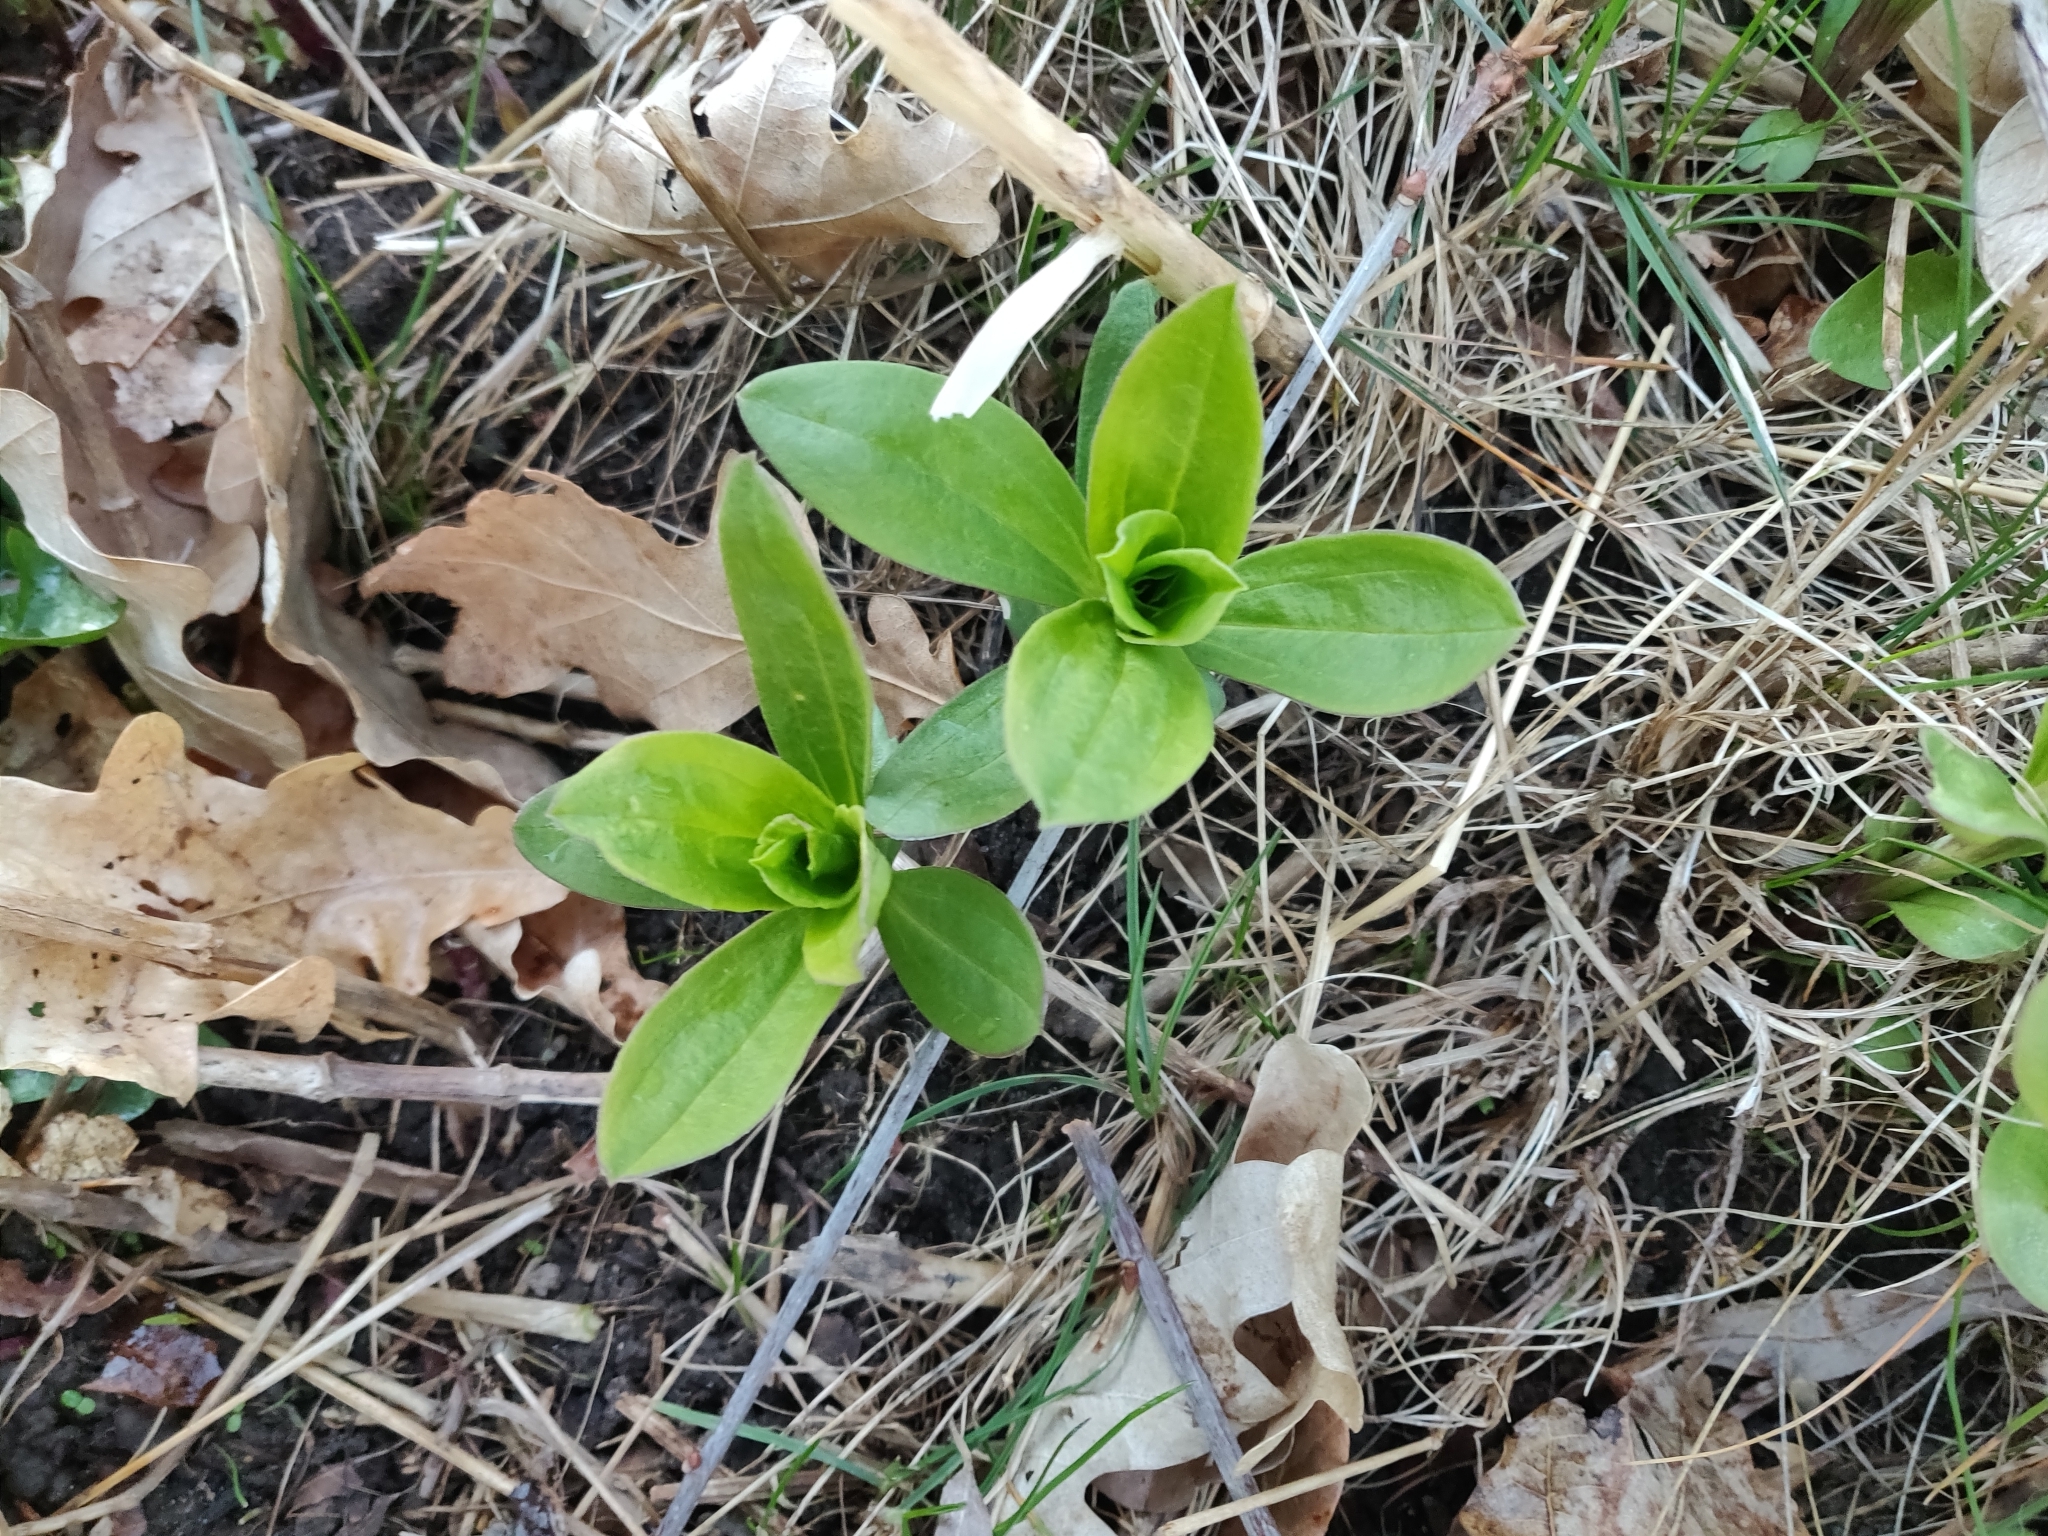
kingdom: Plantae
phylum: Tracheophyta
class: Magnoliopsida
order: Caryophyllales
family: Caryophyllaceae
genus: Saponaria
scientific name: Saponaria officinalis
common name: Soapwort
